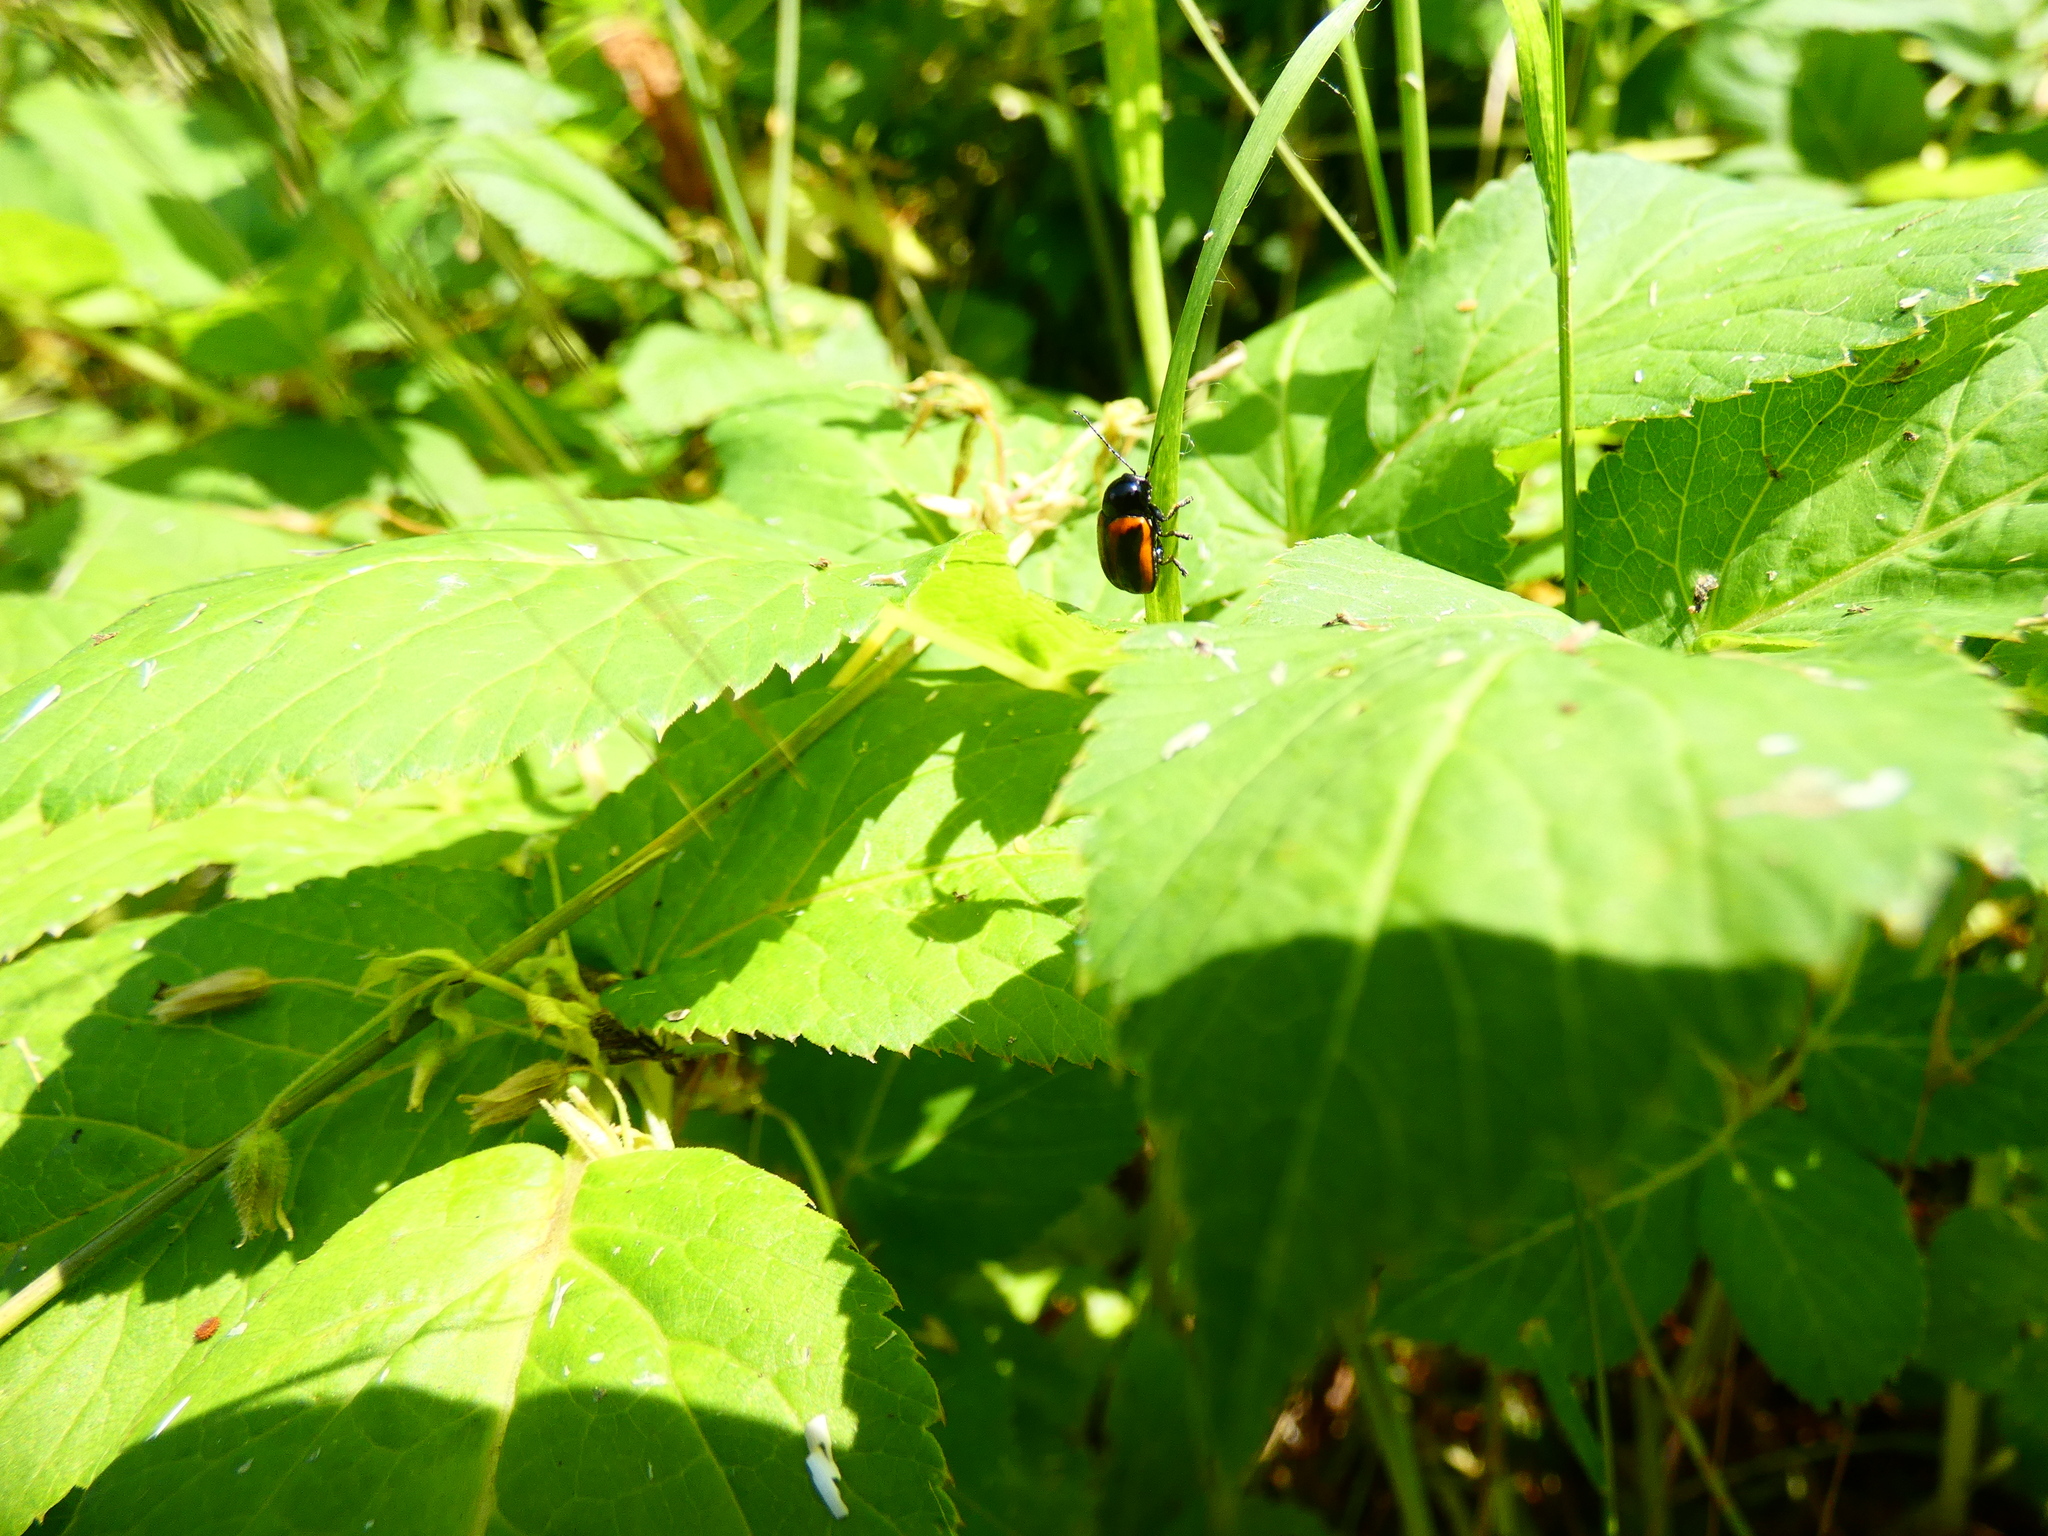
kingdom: Animalia
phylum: Arthropoda
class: Insecta
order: Coleoptera
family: Chrysomelidae
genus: Chiridopsis
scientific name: Chiridopsis bipunctata
